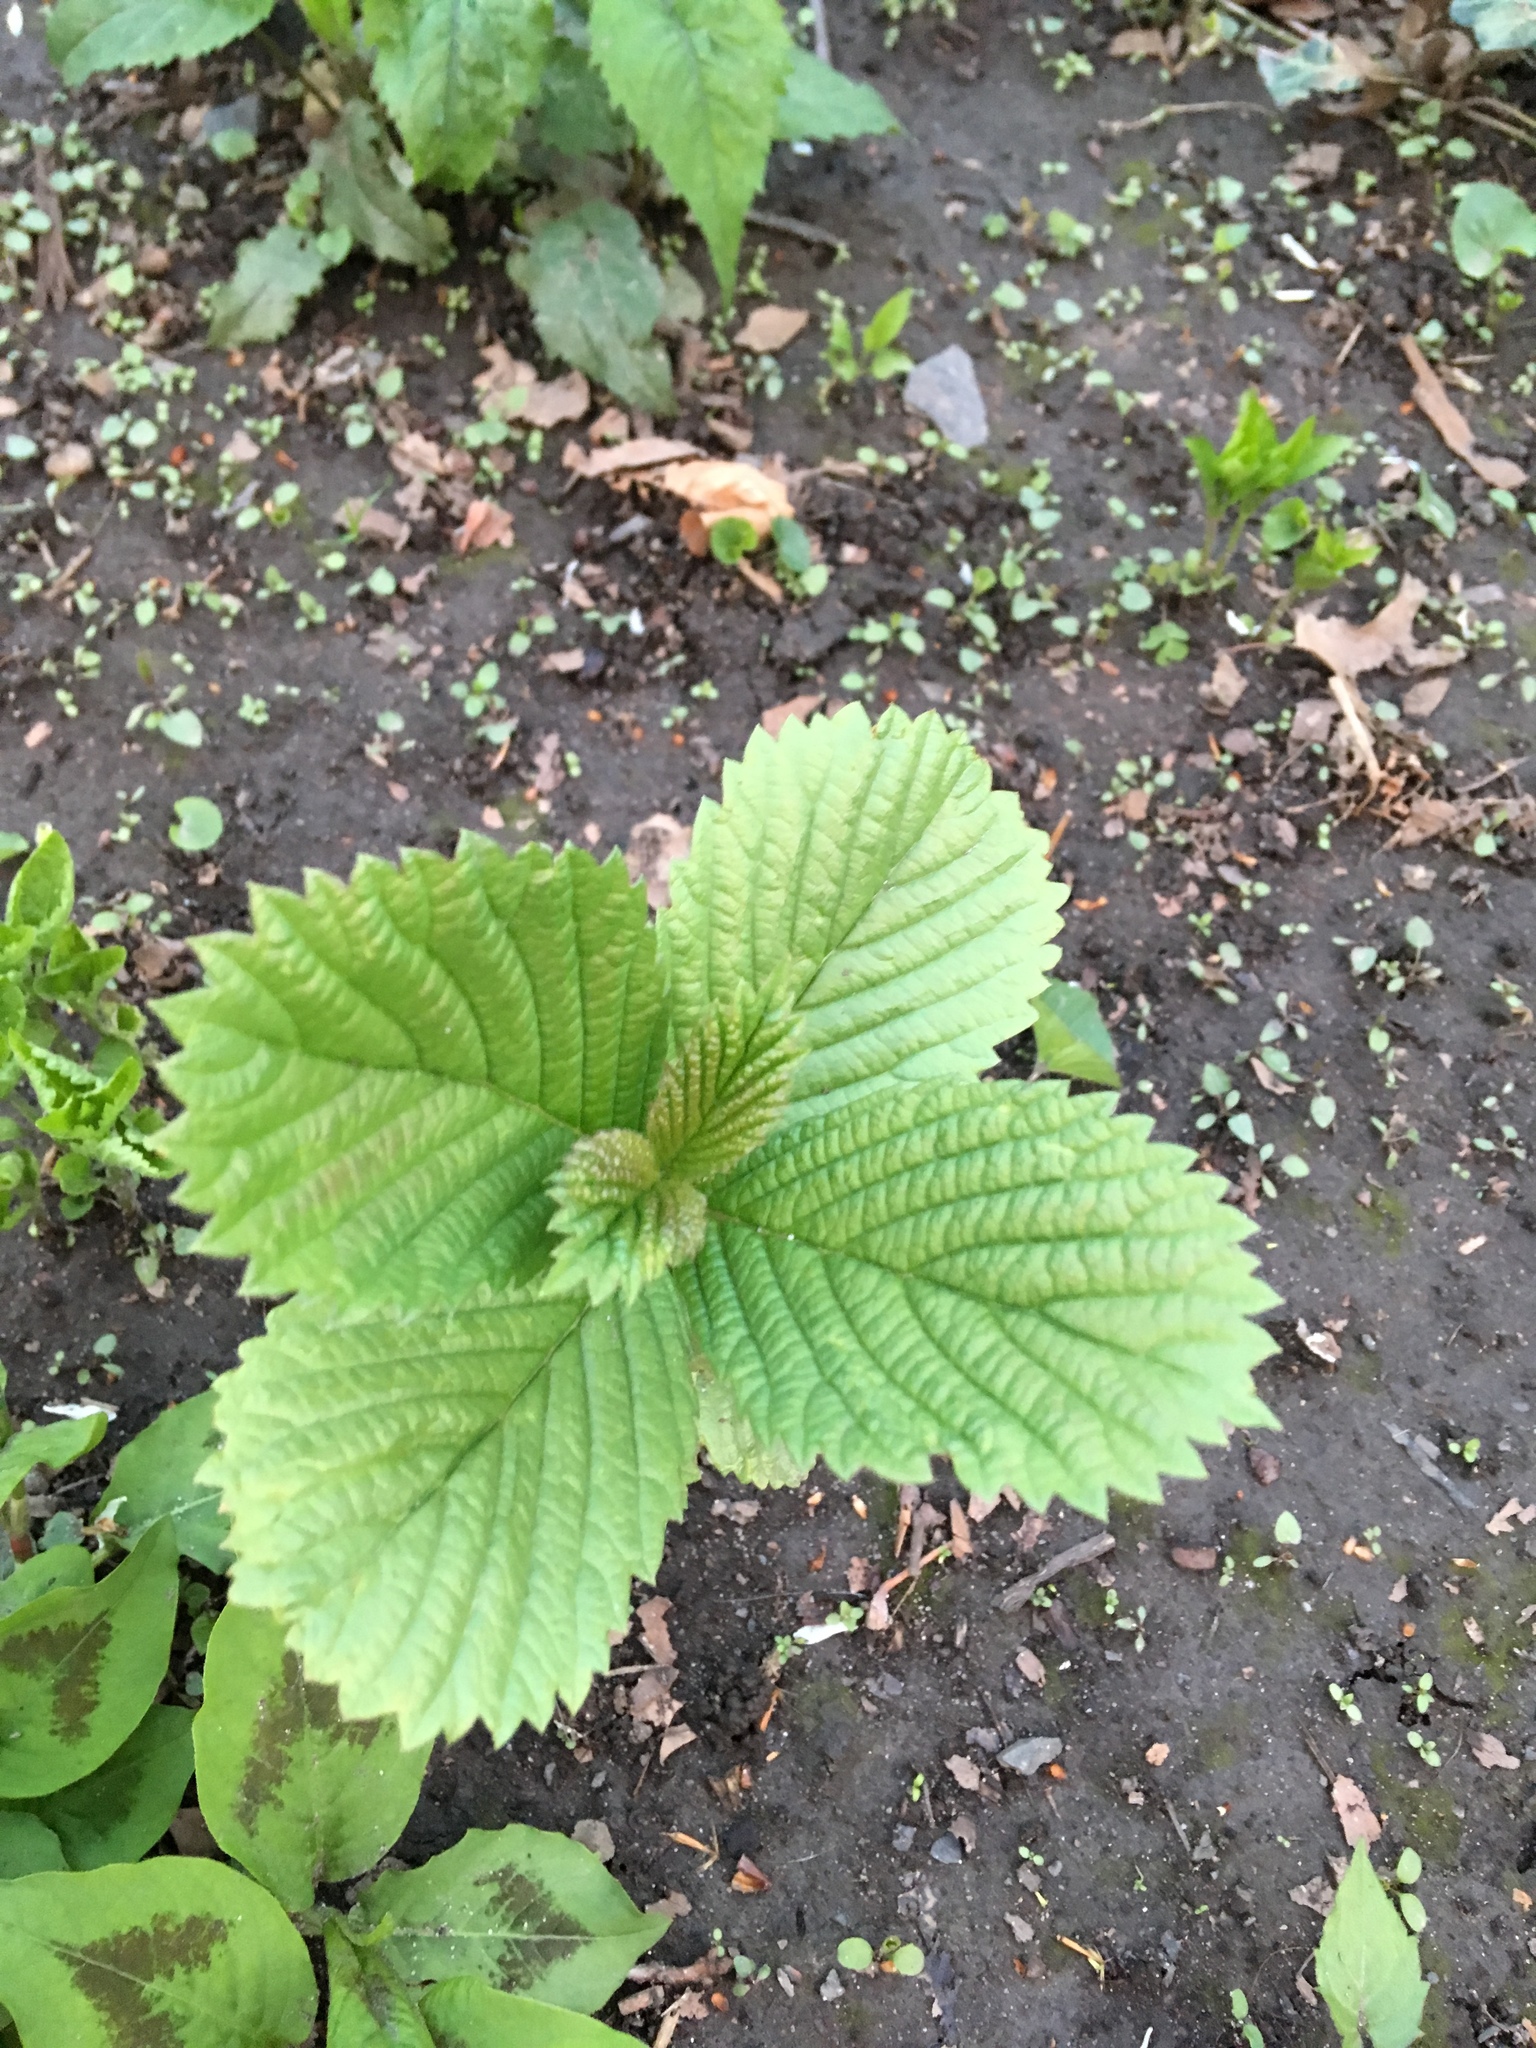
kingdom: Plantae
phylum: Tracheophyta
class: Magnoliopsida
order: Dipsacales
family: Viburnaceae
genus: Viburnum
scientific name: Viburnum sieboldii
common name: Siebold's arrowwood
